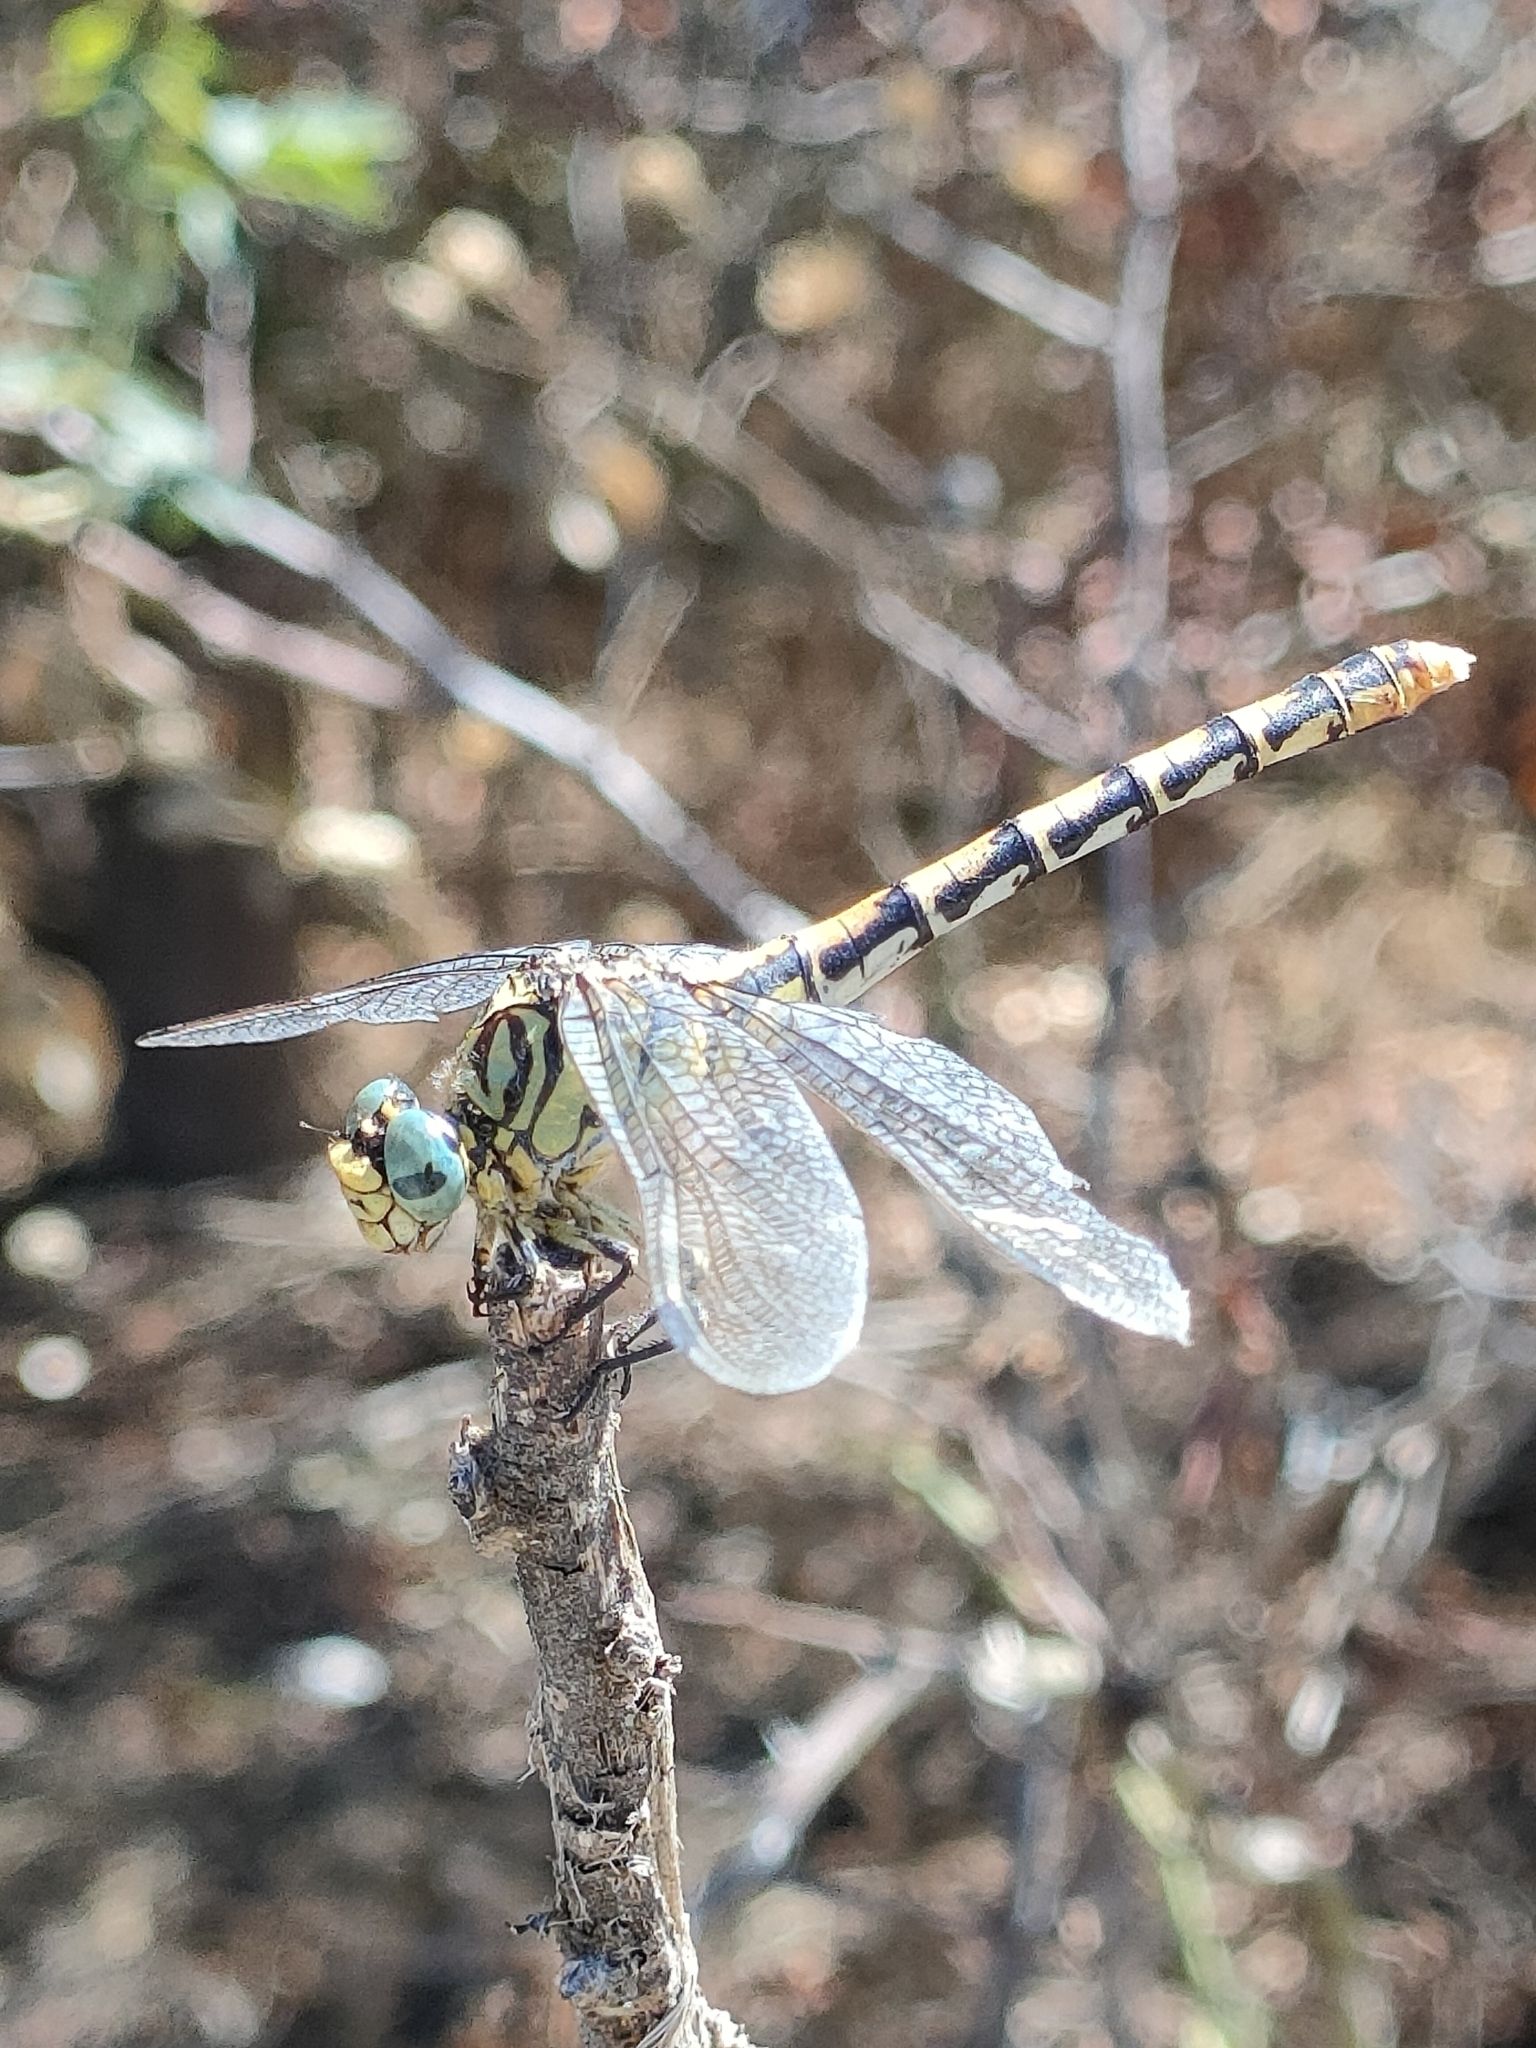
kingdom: Animalia
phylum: Arthropoda
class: Insecta
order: Odonata
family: Gomphidae
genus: Onychogomphus
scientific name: Onychogomphus forcipatus
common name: Small pincertail
